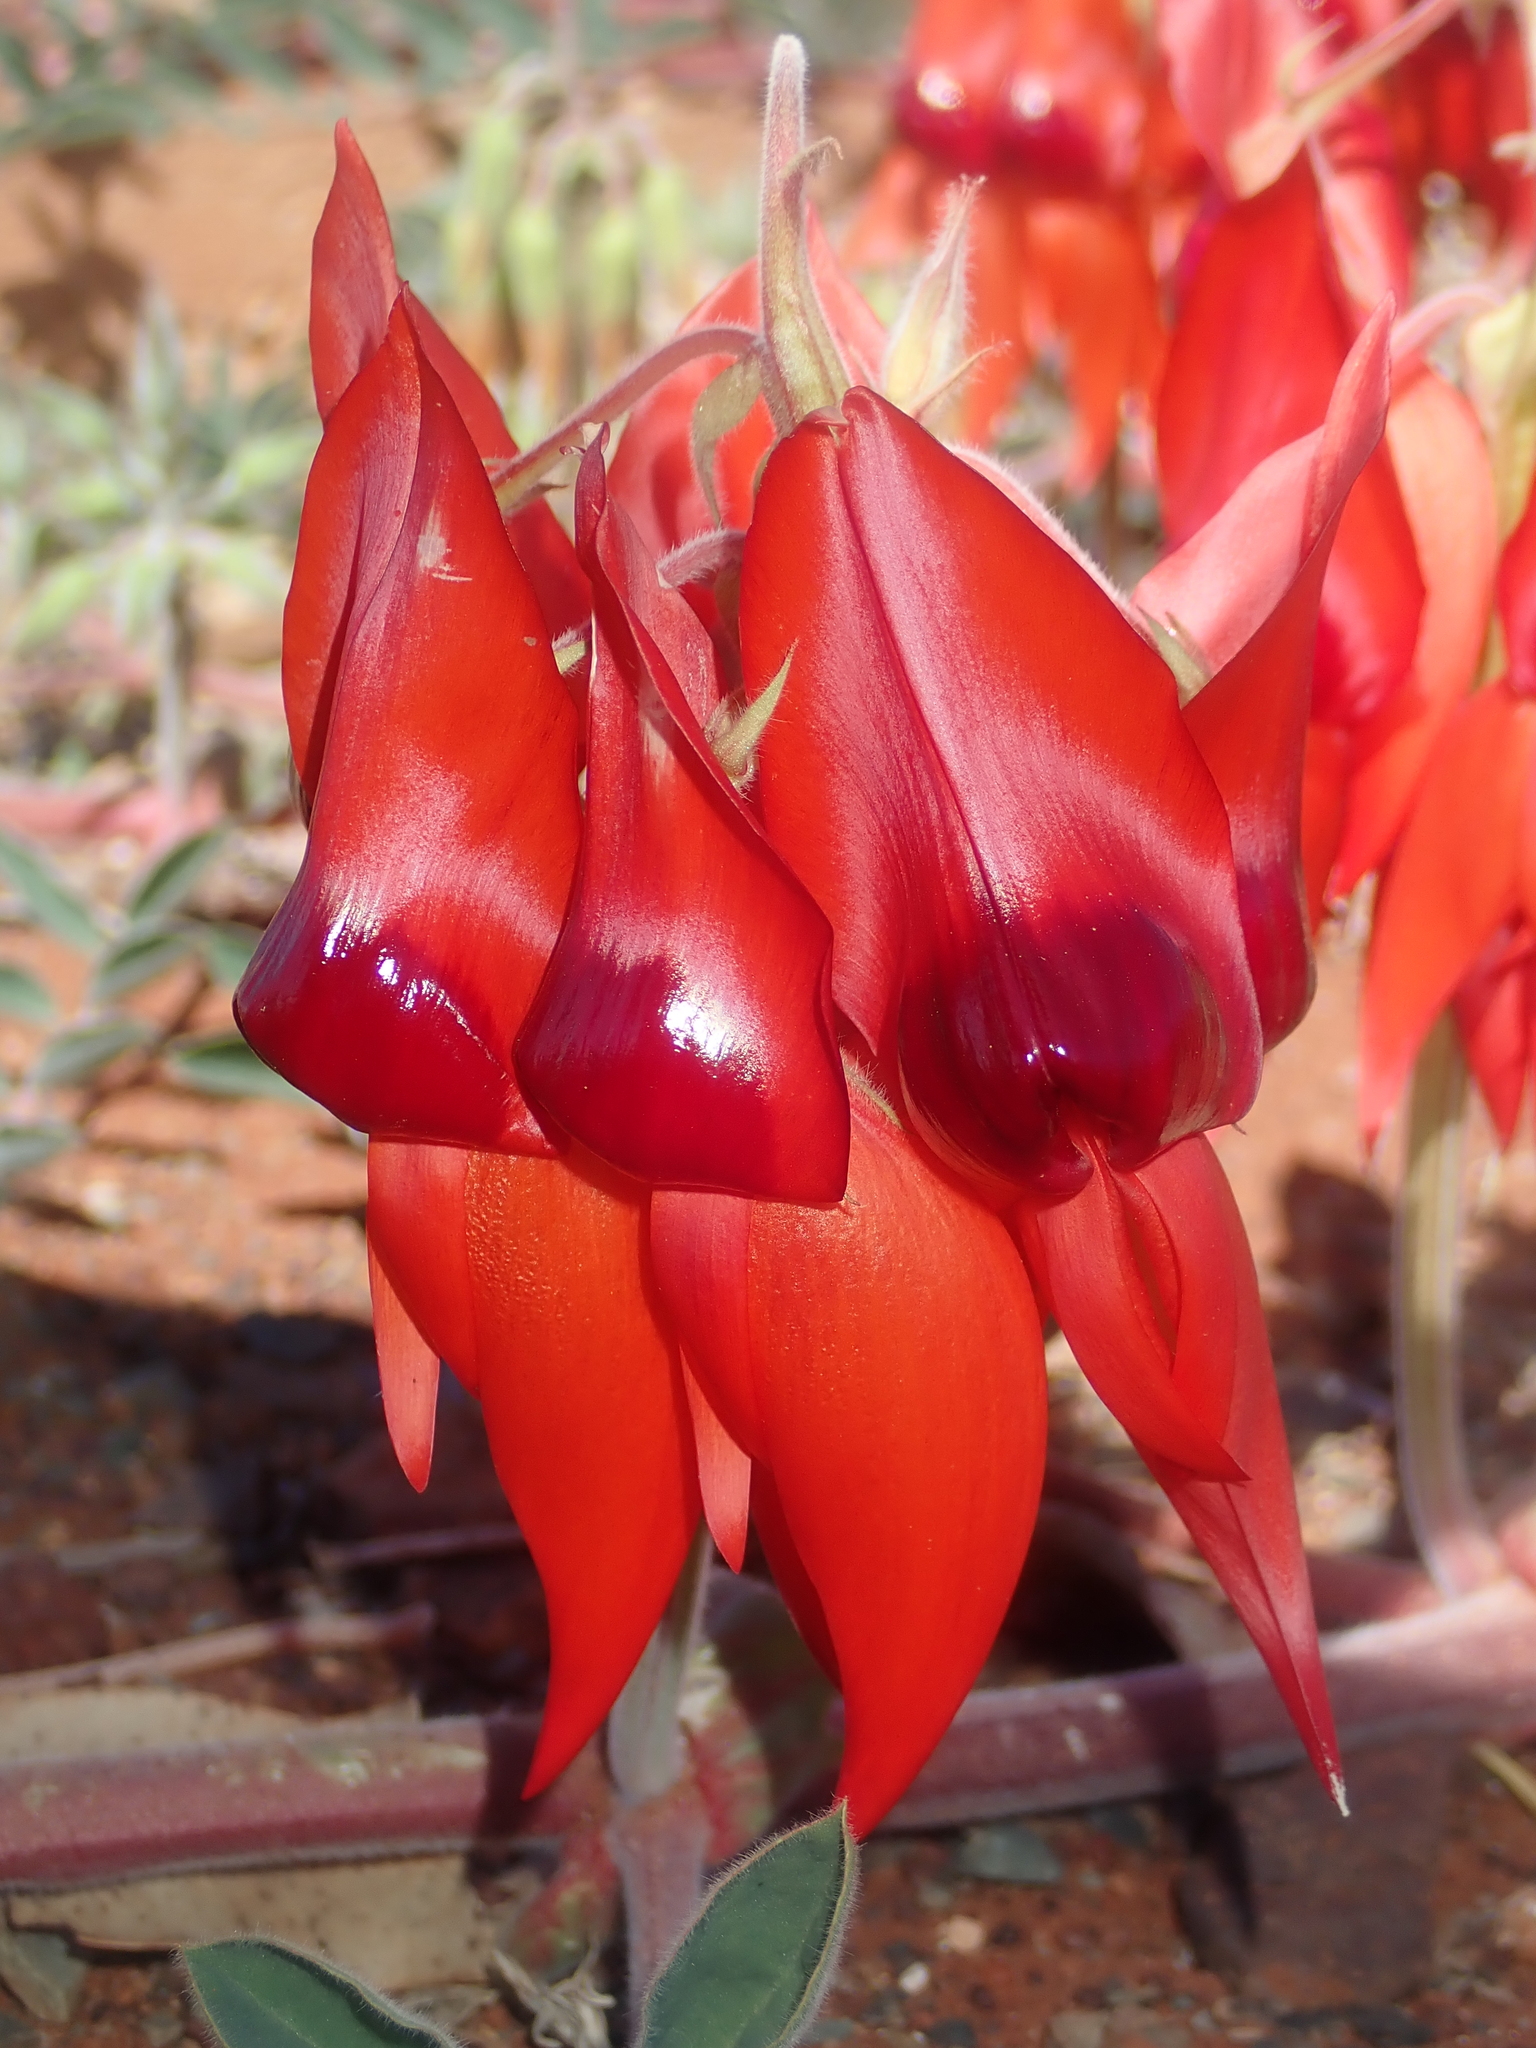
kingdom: Plantae
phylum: Tracheophyta
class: Magnoliopsida
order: Fabales
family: Fabaceae
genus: Swainsona
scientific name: Swainsona formosa
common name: Sturt's desert-pea
